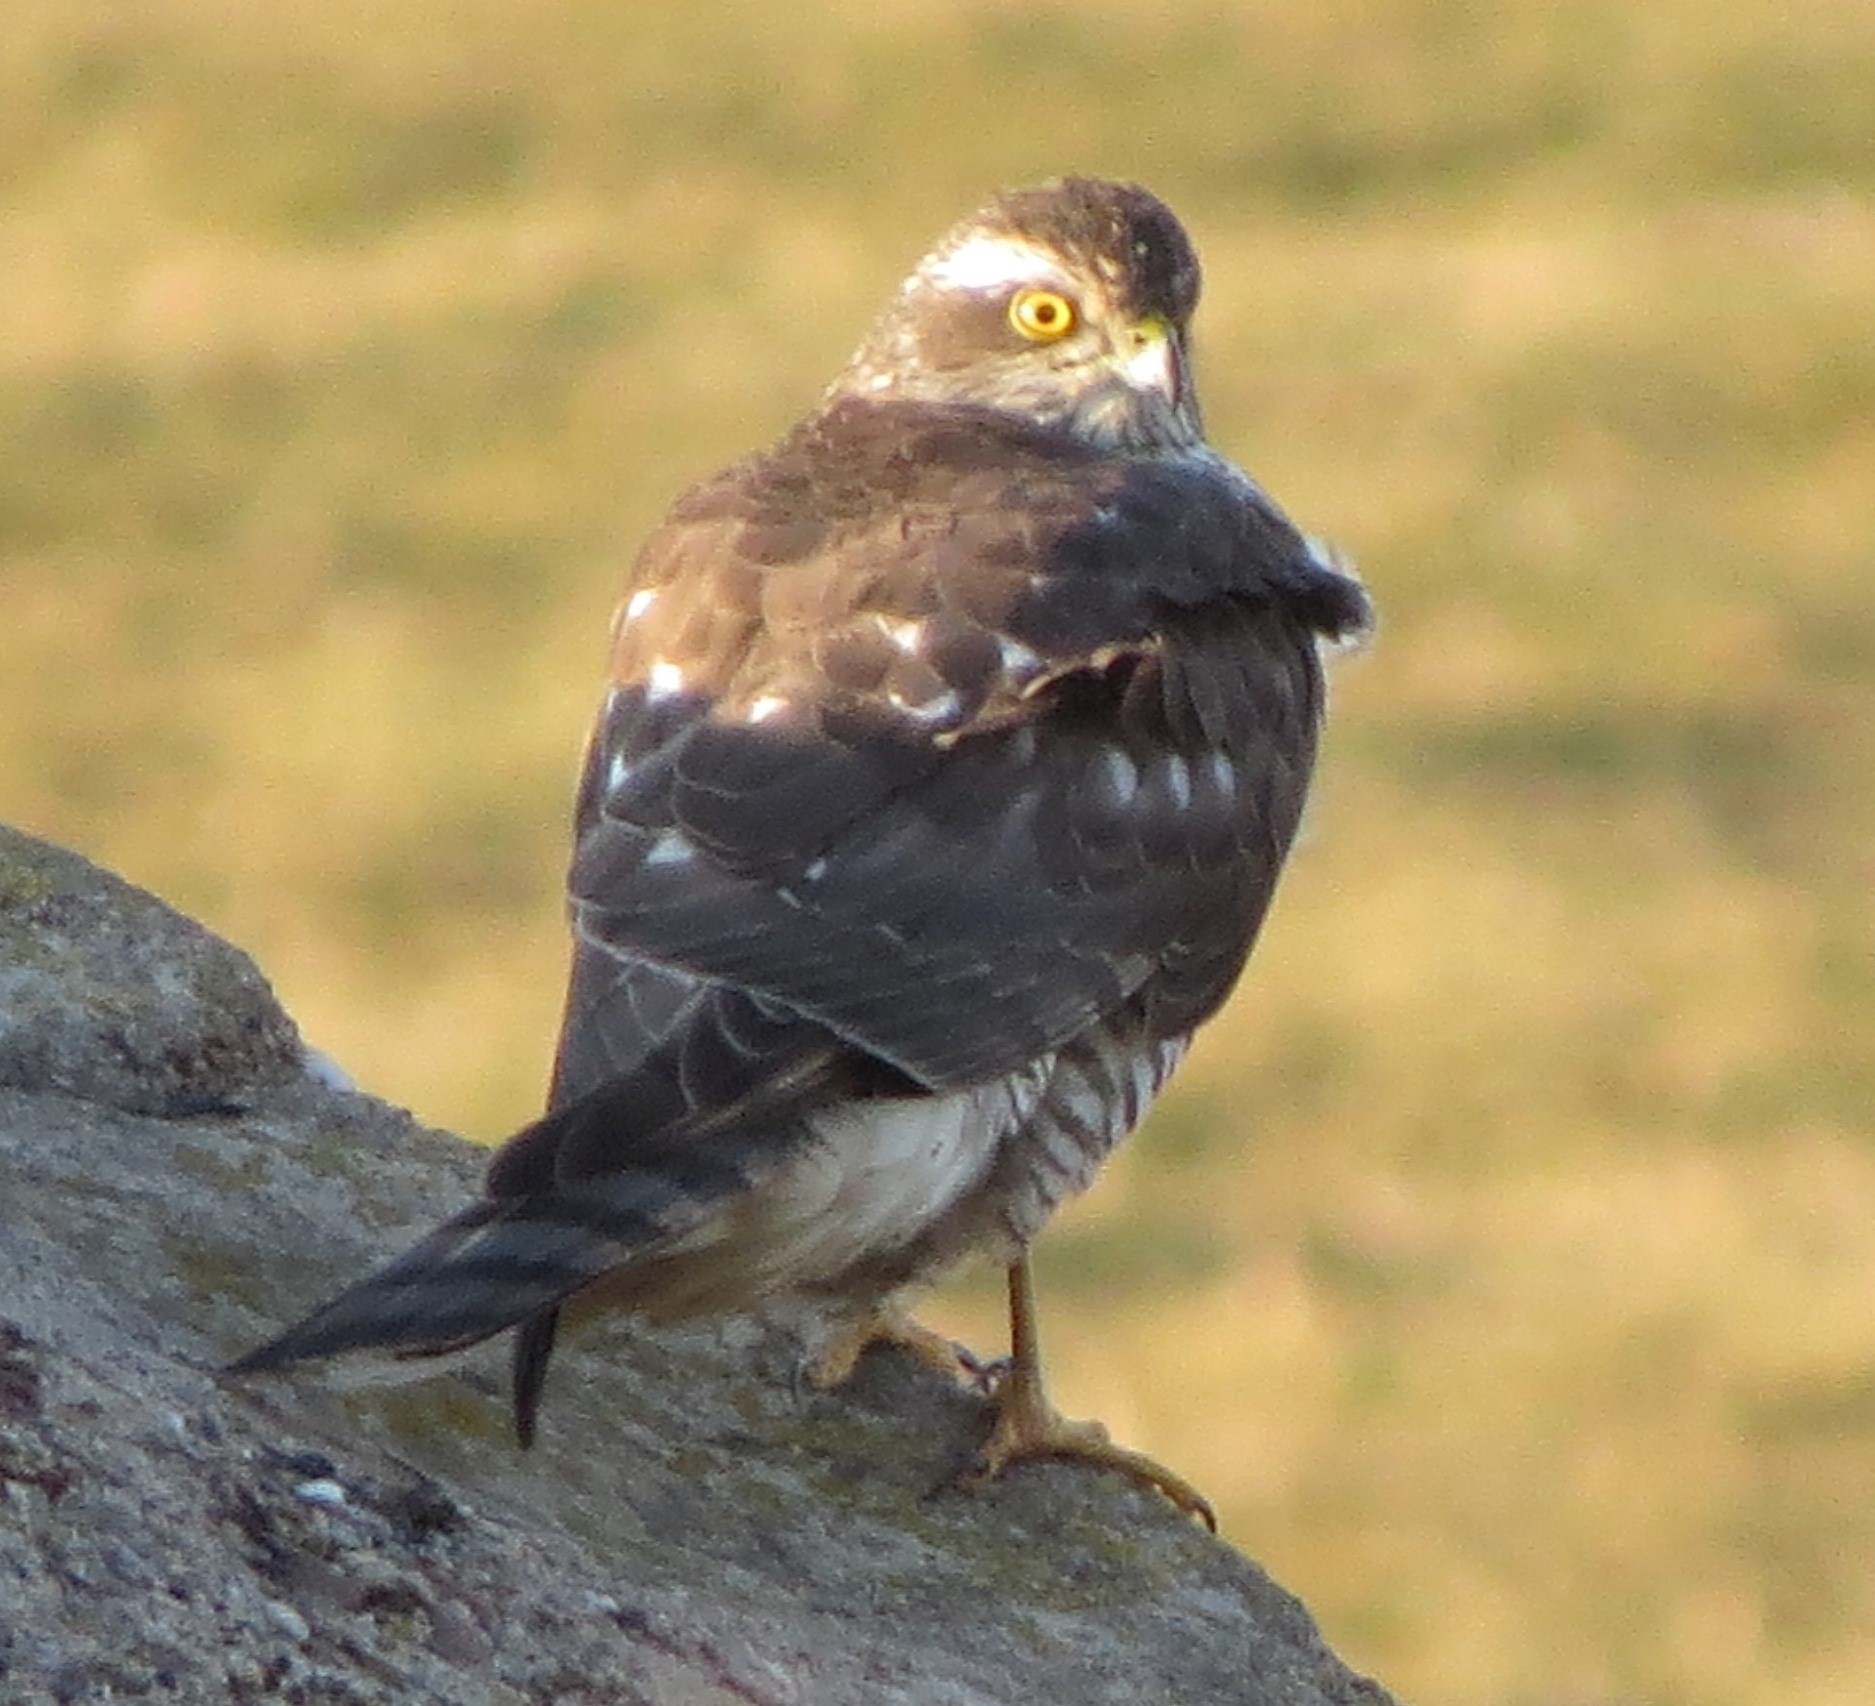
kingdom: Animalia
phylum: Chordata
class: Aves
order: Accipitriformes
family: Accipitridae
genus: Accipiter
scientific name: Accipiter nisus
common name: Eurasian sparrowhawk
